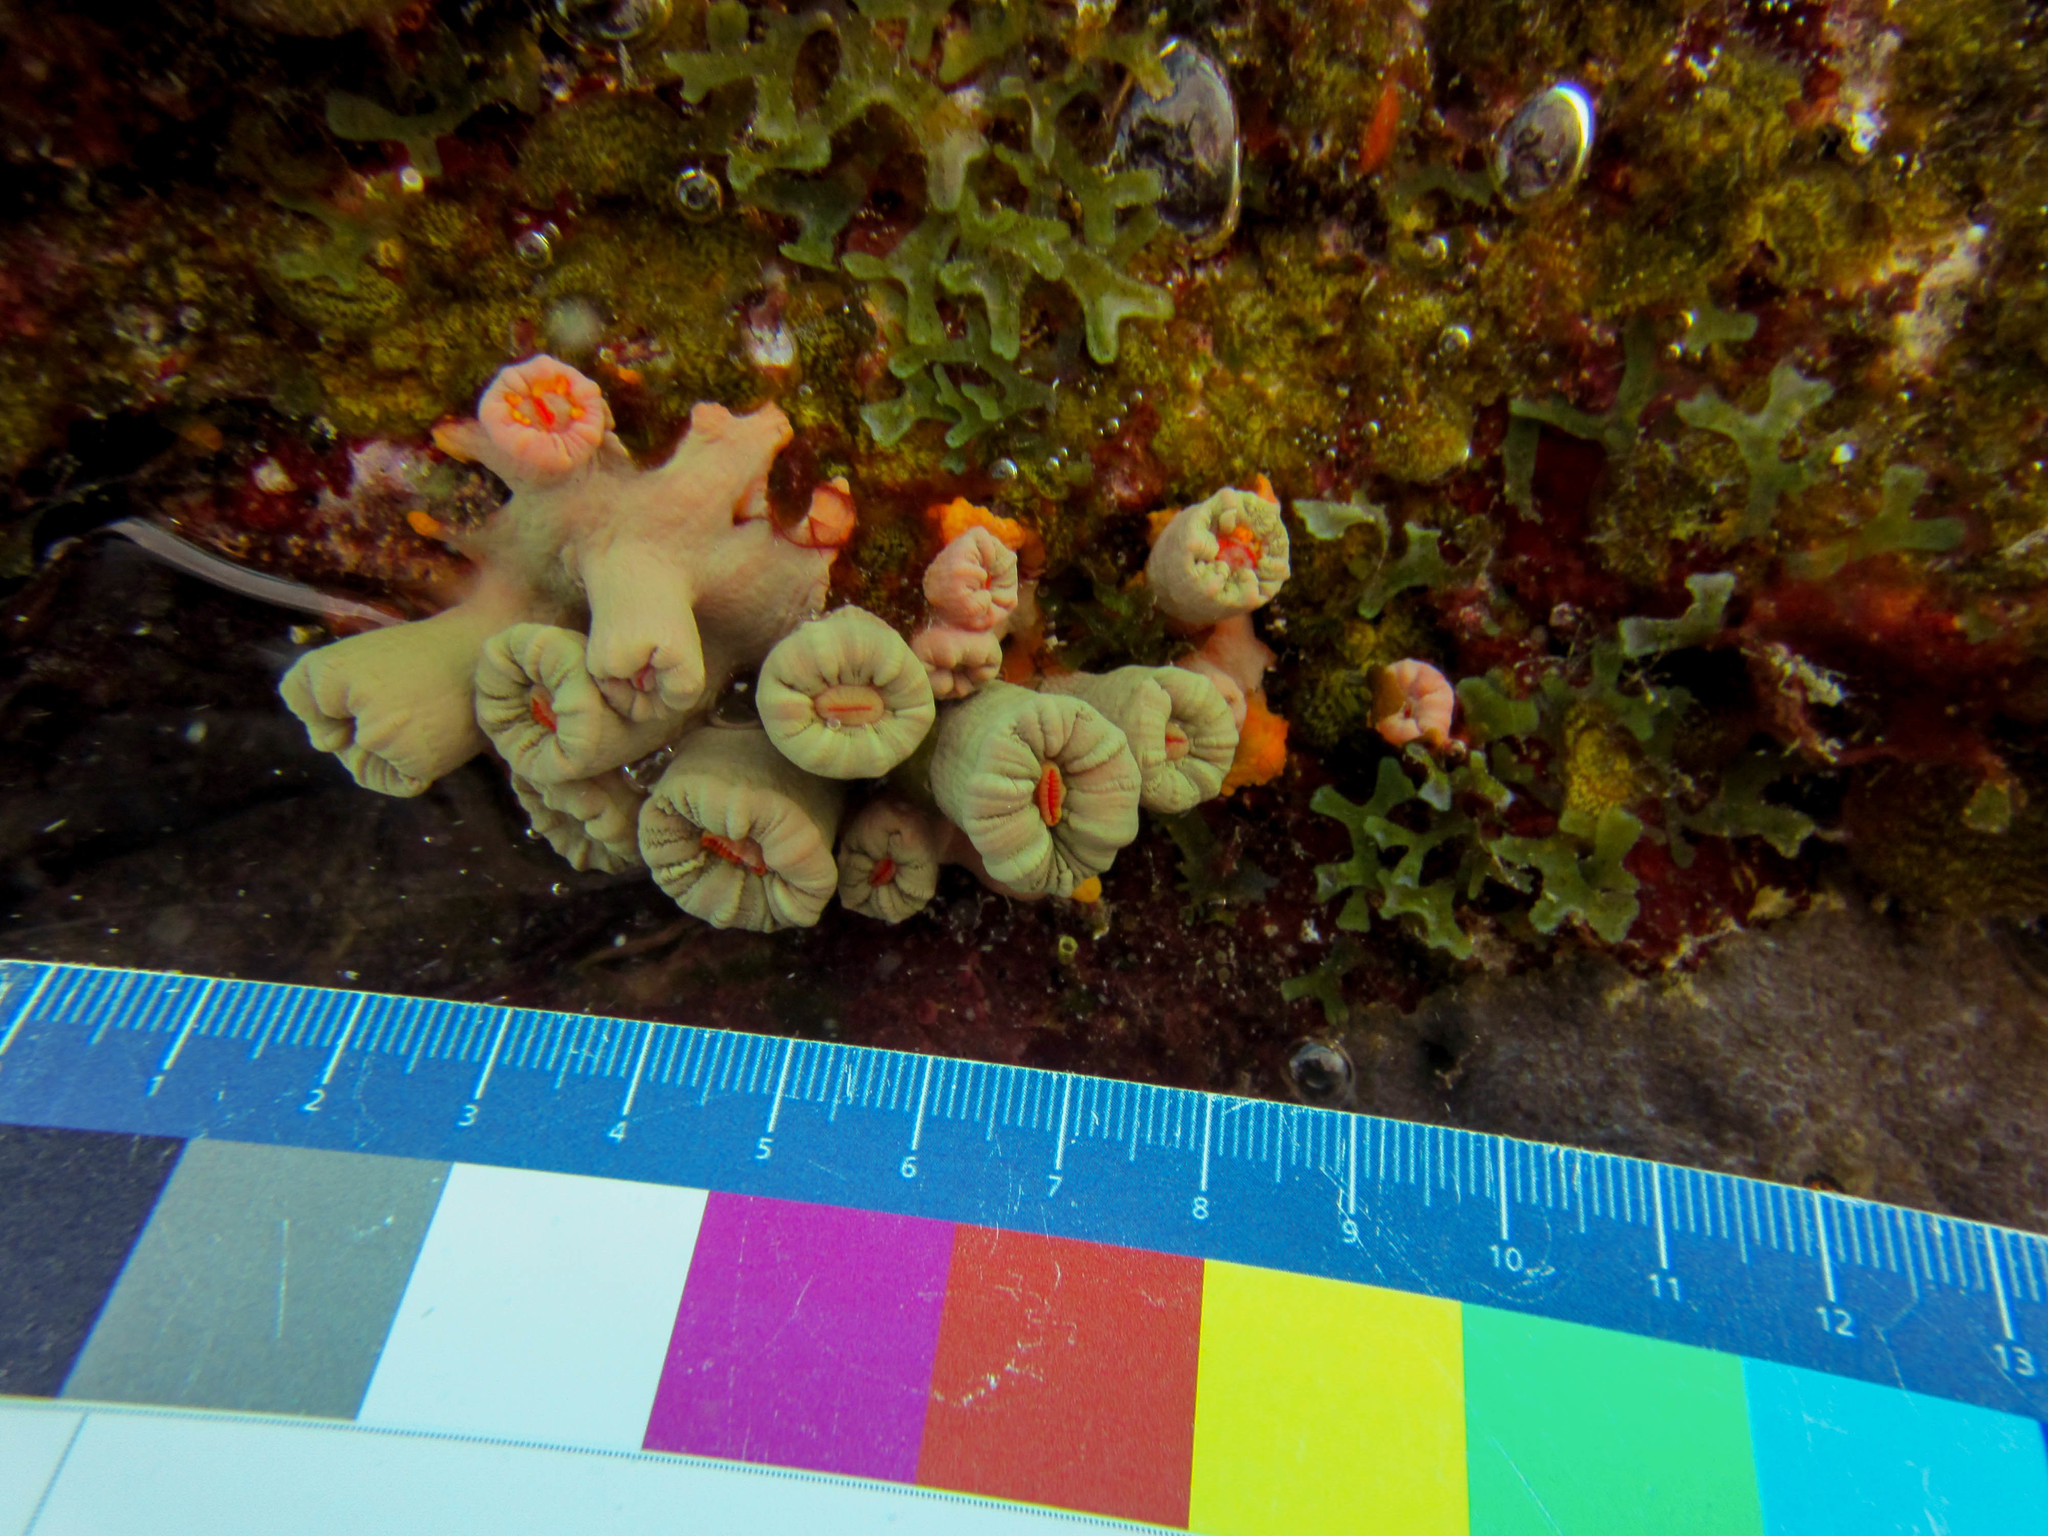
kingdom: Animalia
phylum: Cnidaria
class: Anthozoa
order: Scleractinia
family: Dendrophylliidae
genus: Cladopsammia
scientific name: Cladopsammia manuelensis
